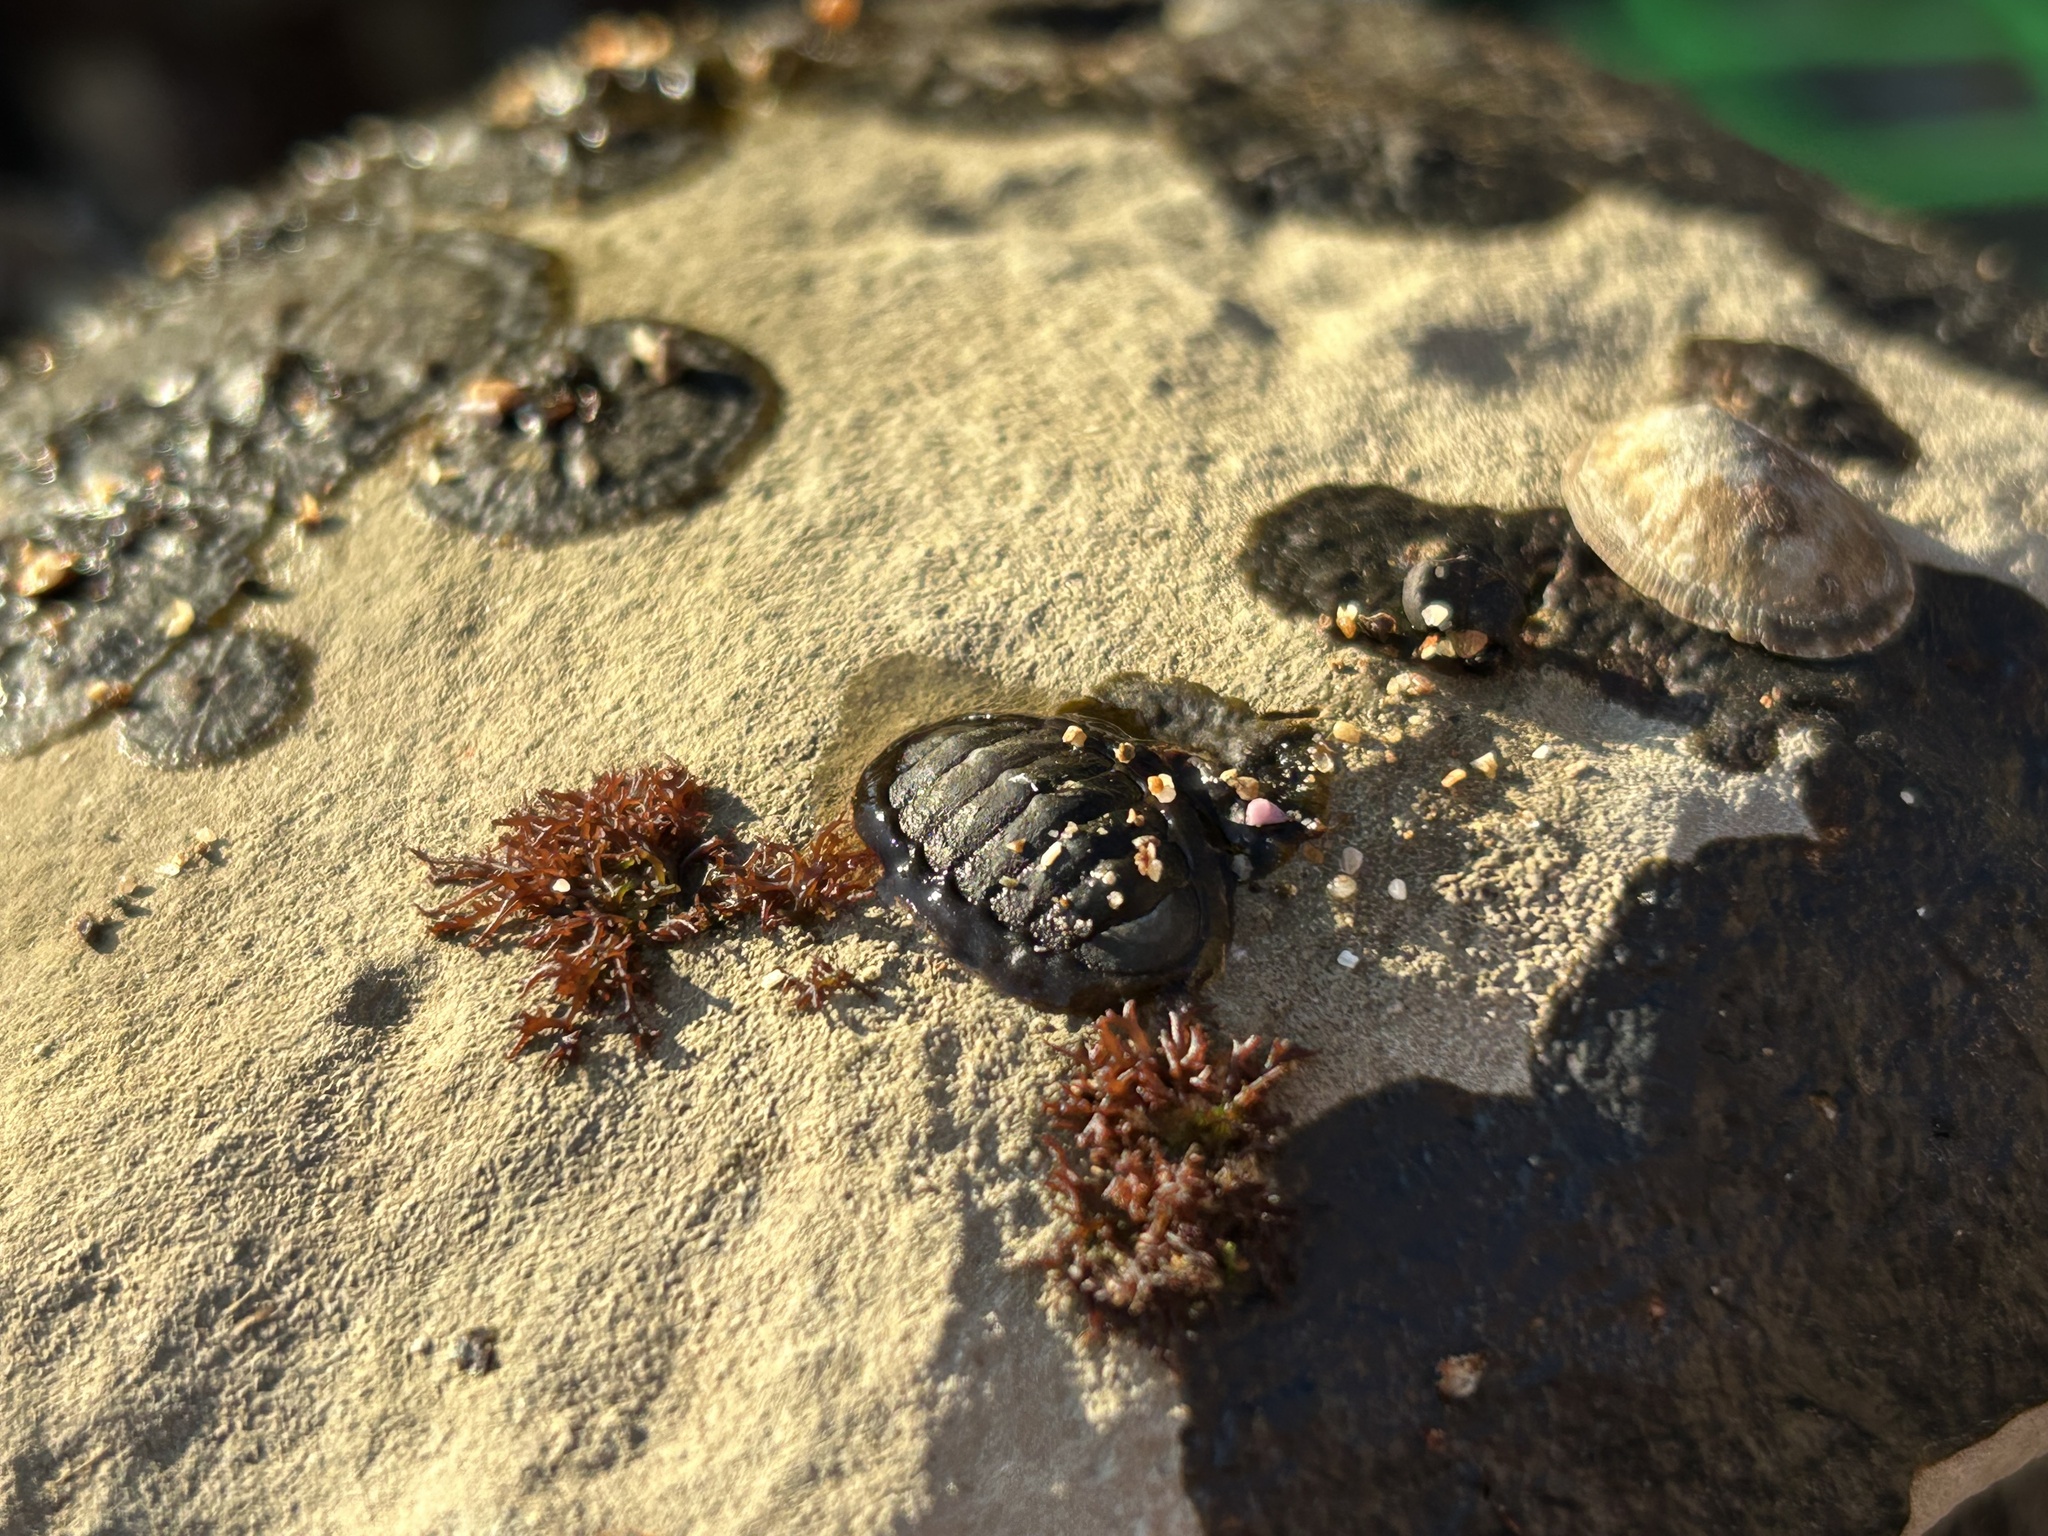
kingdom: Animalia
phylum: Mollusca
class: Polyplacophora
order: Chitonida
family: Tonicellidae
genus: Cyanoplax
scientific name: Cyanoplax hartwegii
